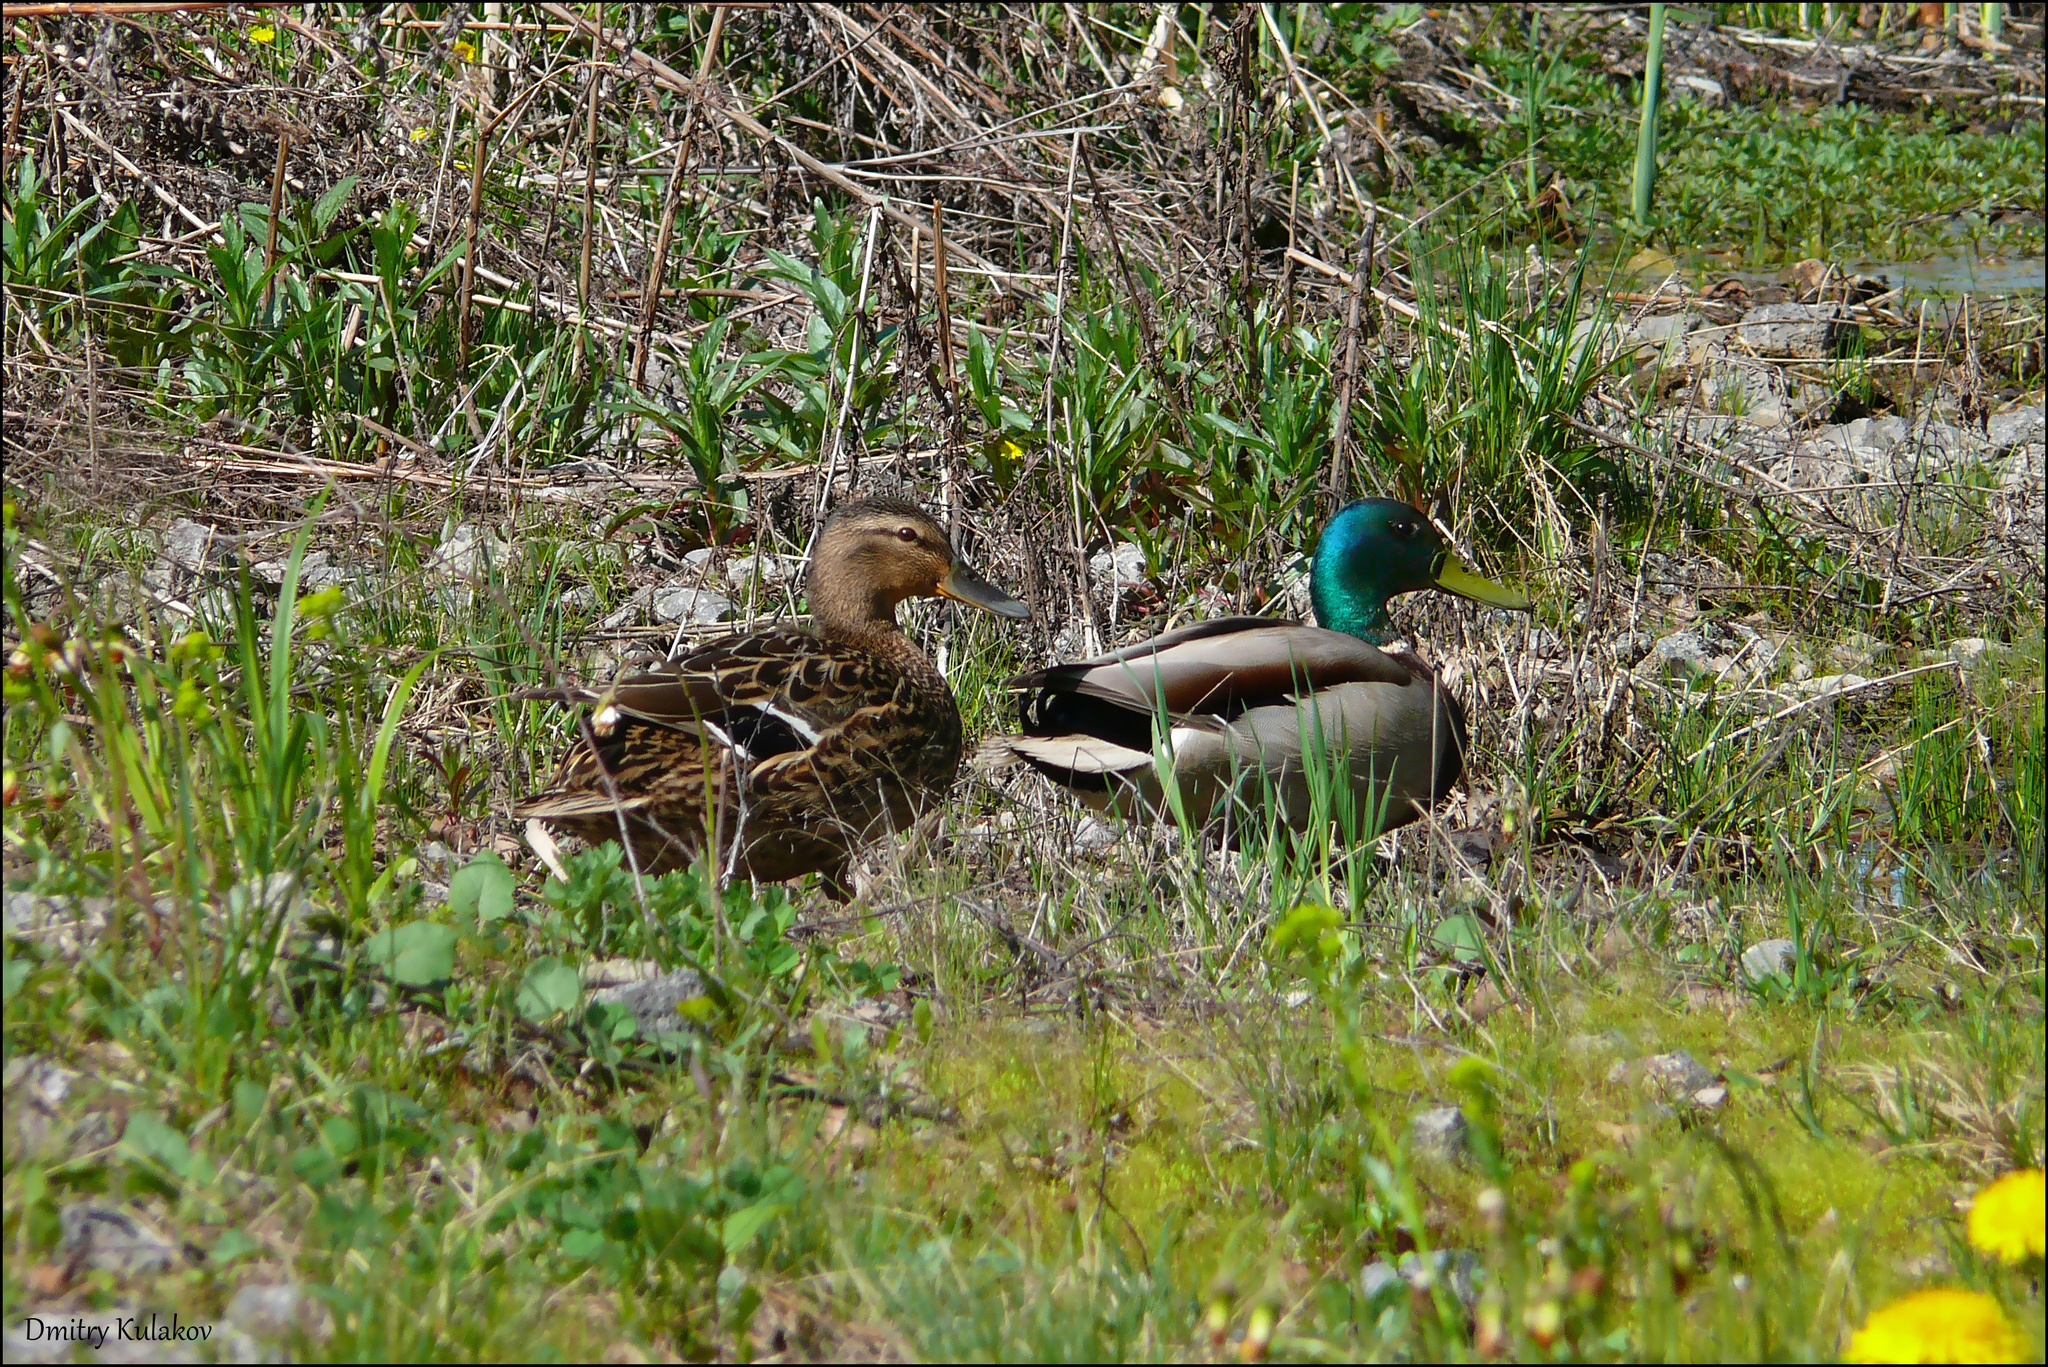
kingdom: Animalia
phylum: Chordata
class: Aves
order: Anseriformes
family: Anatidae
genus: Anas
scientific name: Anas platyrhynchos
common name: Mallard
